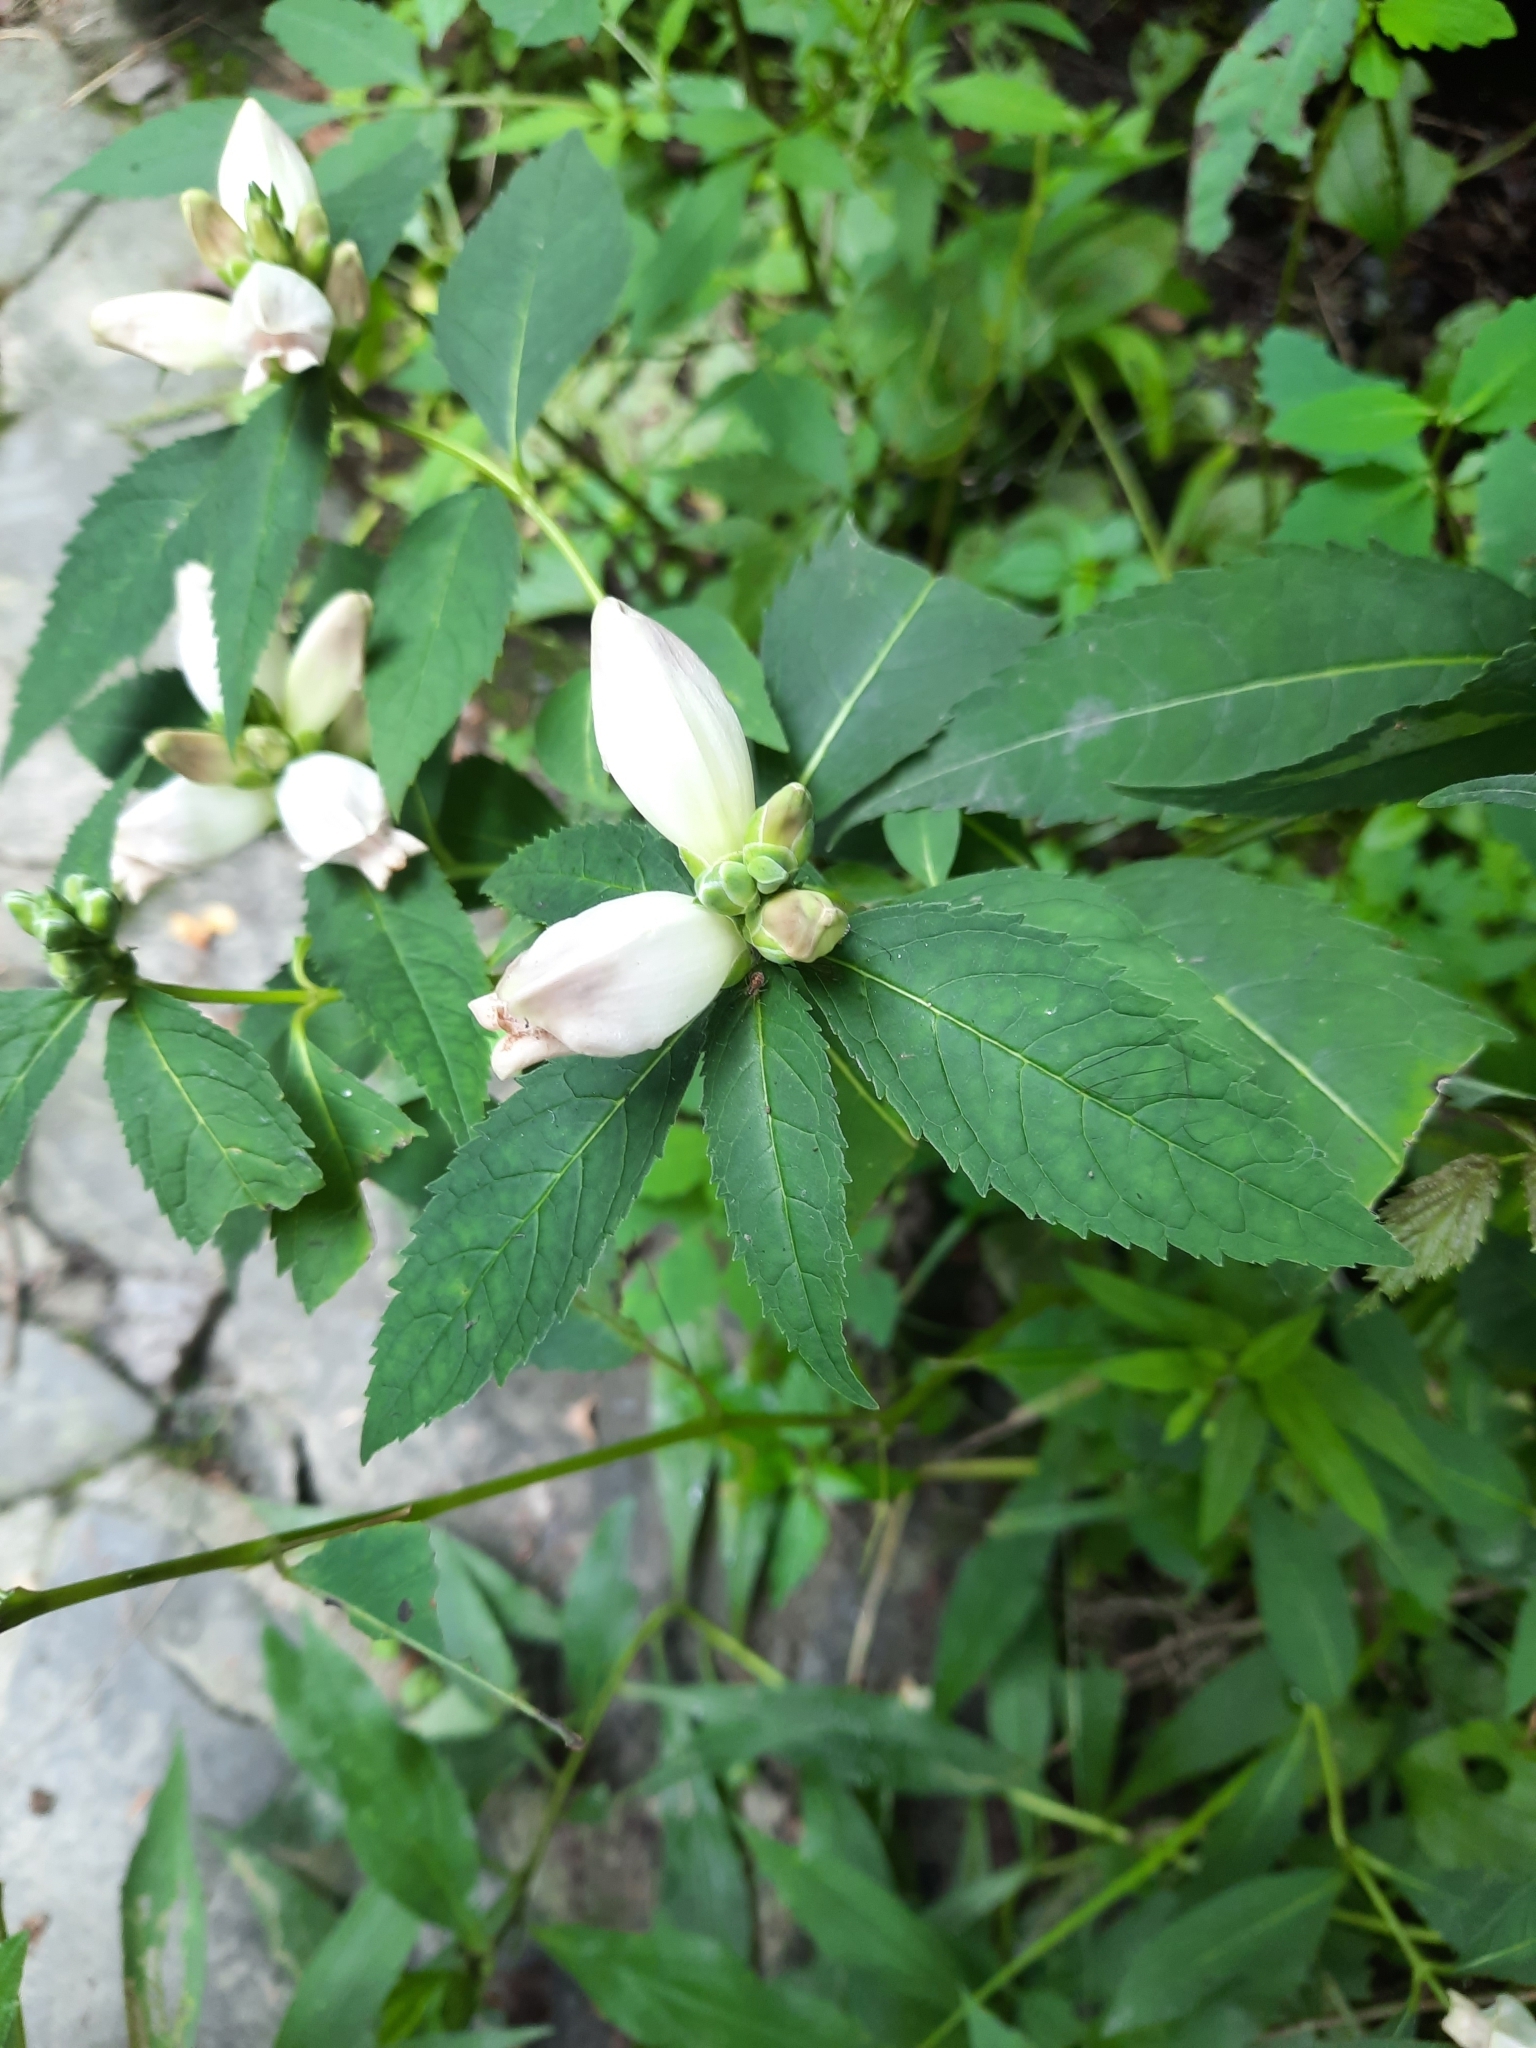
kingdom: Plantae
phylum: Tracheophyta
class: Magnoliopsida
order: Lamiales
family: Plantaginaceae
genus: Chelone
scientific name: Chelone glabra
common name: Snakehead
